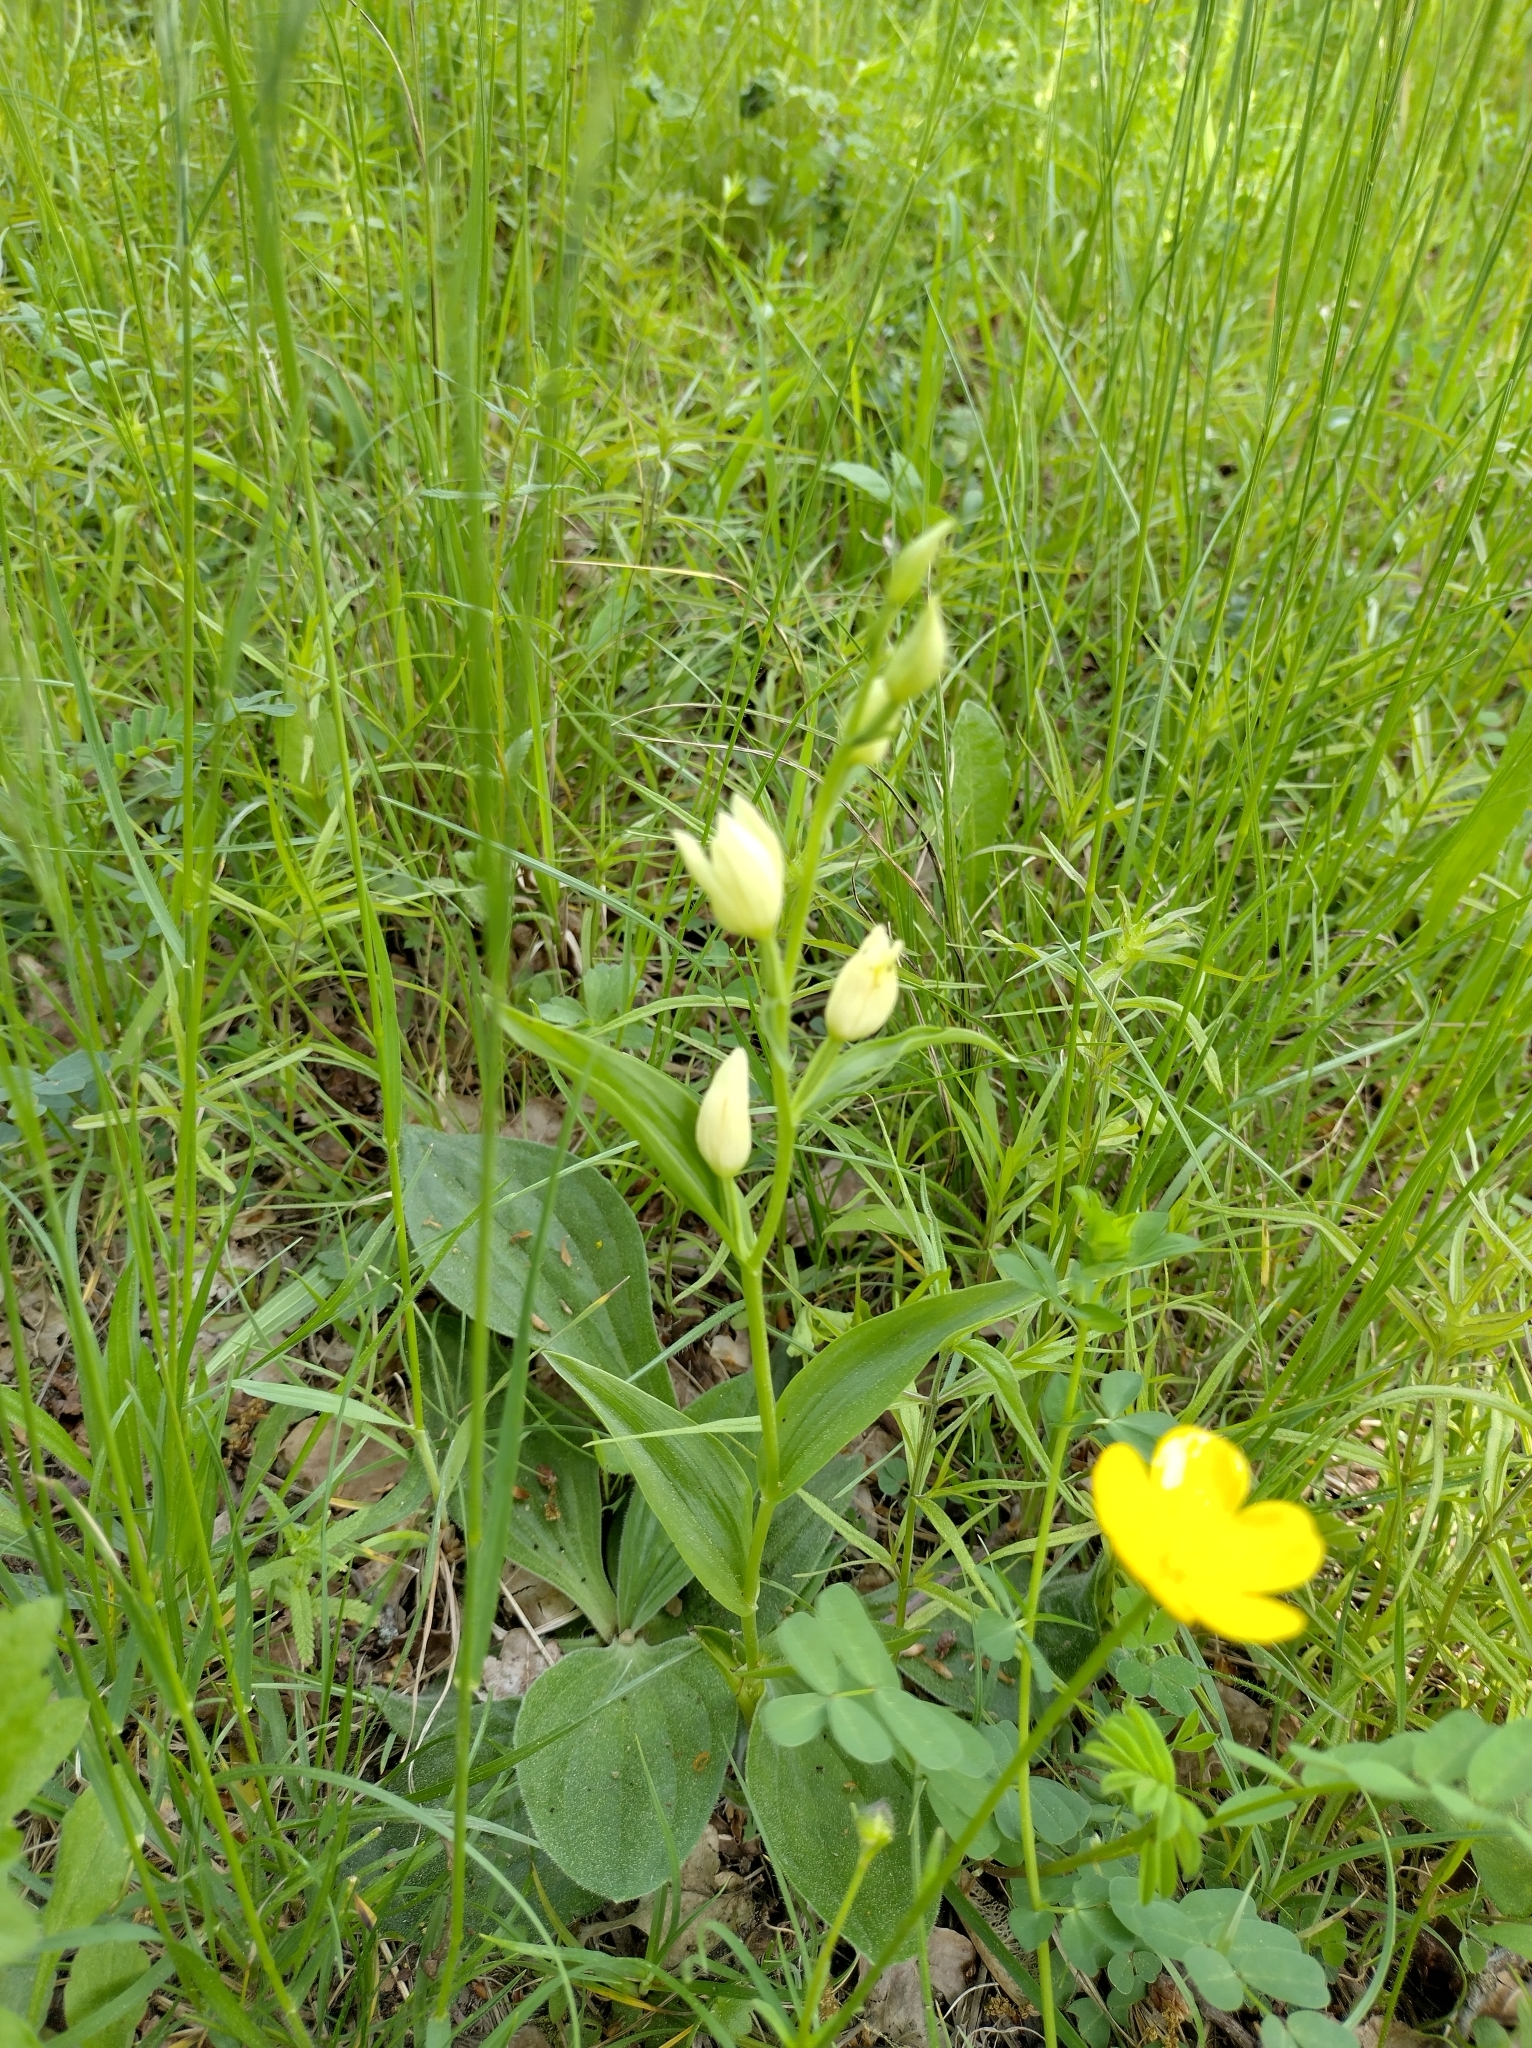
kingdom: Plantae
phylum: Tracheophyta
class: Liliopsida
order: Asparagales
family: Orchidaceae
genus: Cephalanthera
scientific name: Cephalanthera damasonium
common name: White helleborine
